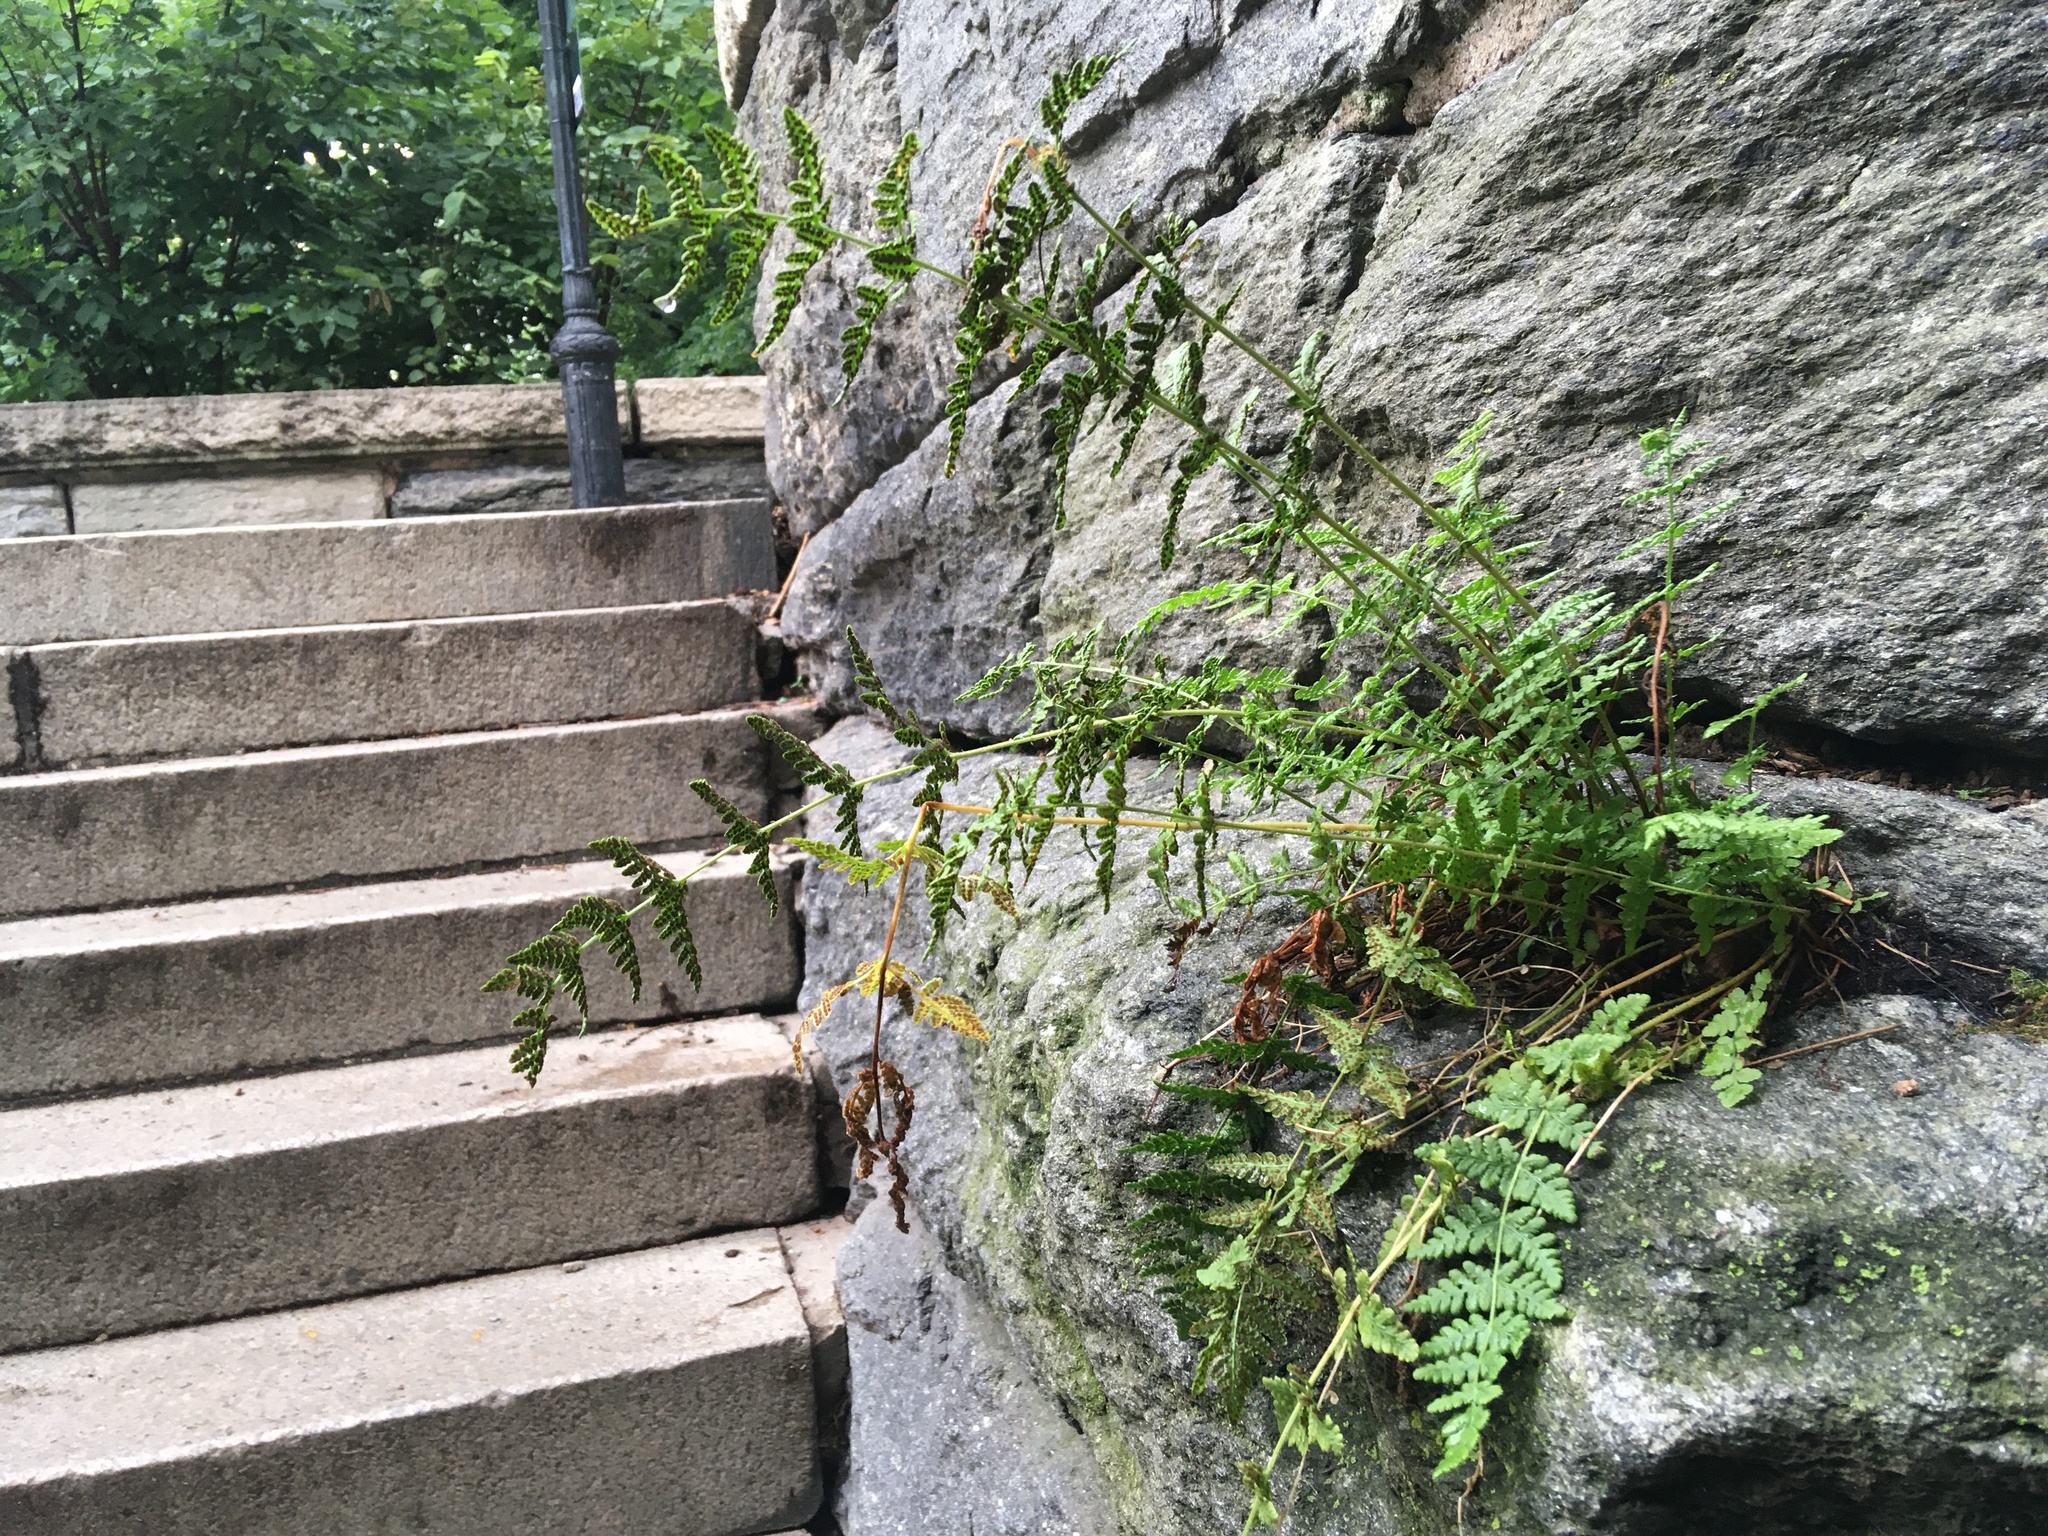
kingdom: Plantae
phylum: Tracheophyta
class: Polypodiopsida
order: Polypodiales
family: Woodsiaceae
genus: Physematium
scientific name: Physematium obtusum
